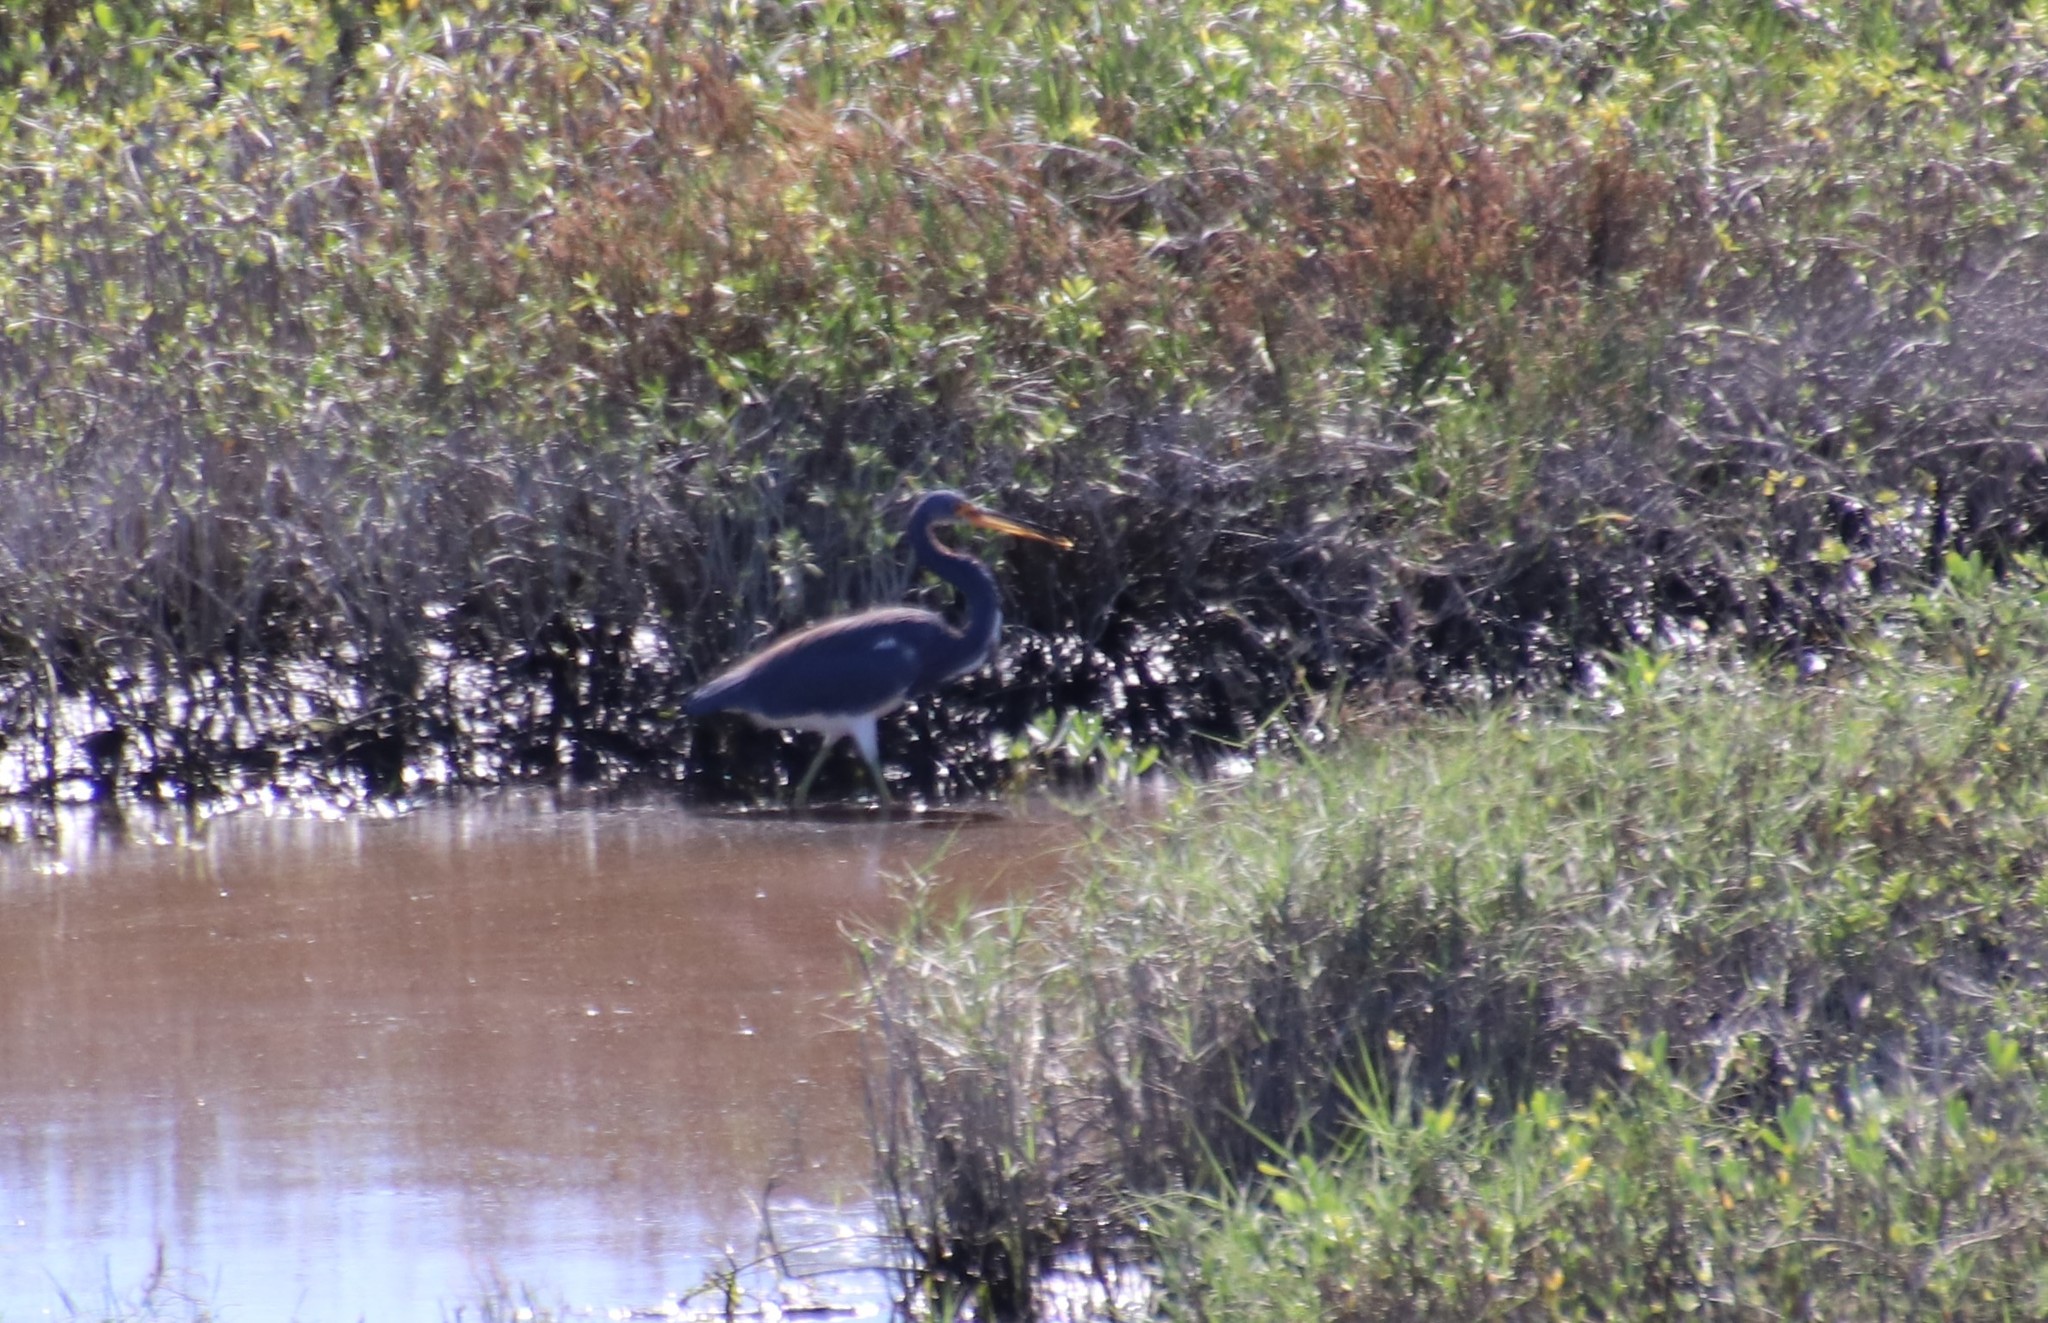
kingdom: Animalia
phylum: Chordata
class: Aves
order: Pelecaniformes
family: Ardeidae
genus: Egretta
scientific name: Egretta tricolor
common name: Tricolored heron
